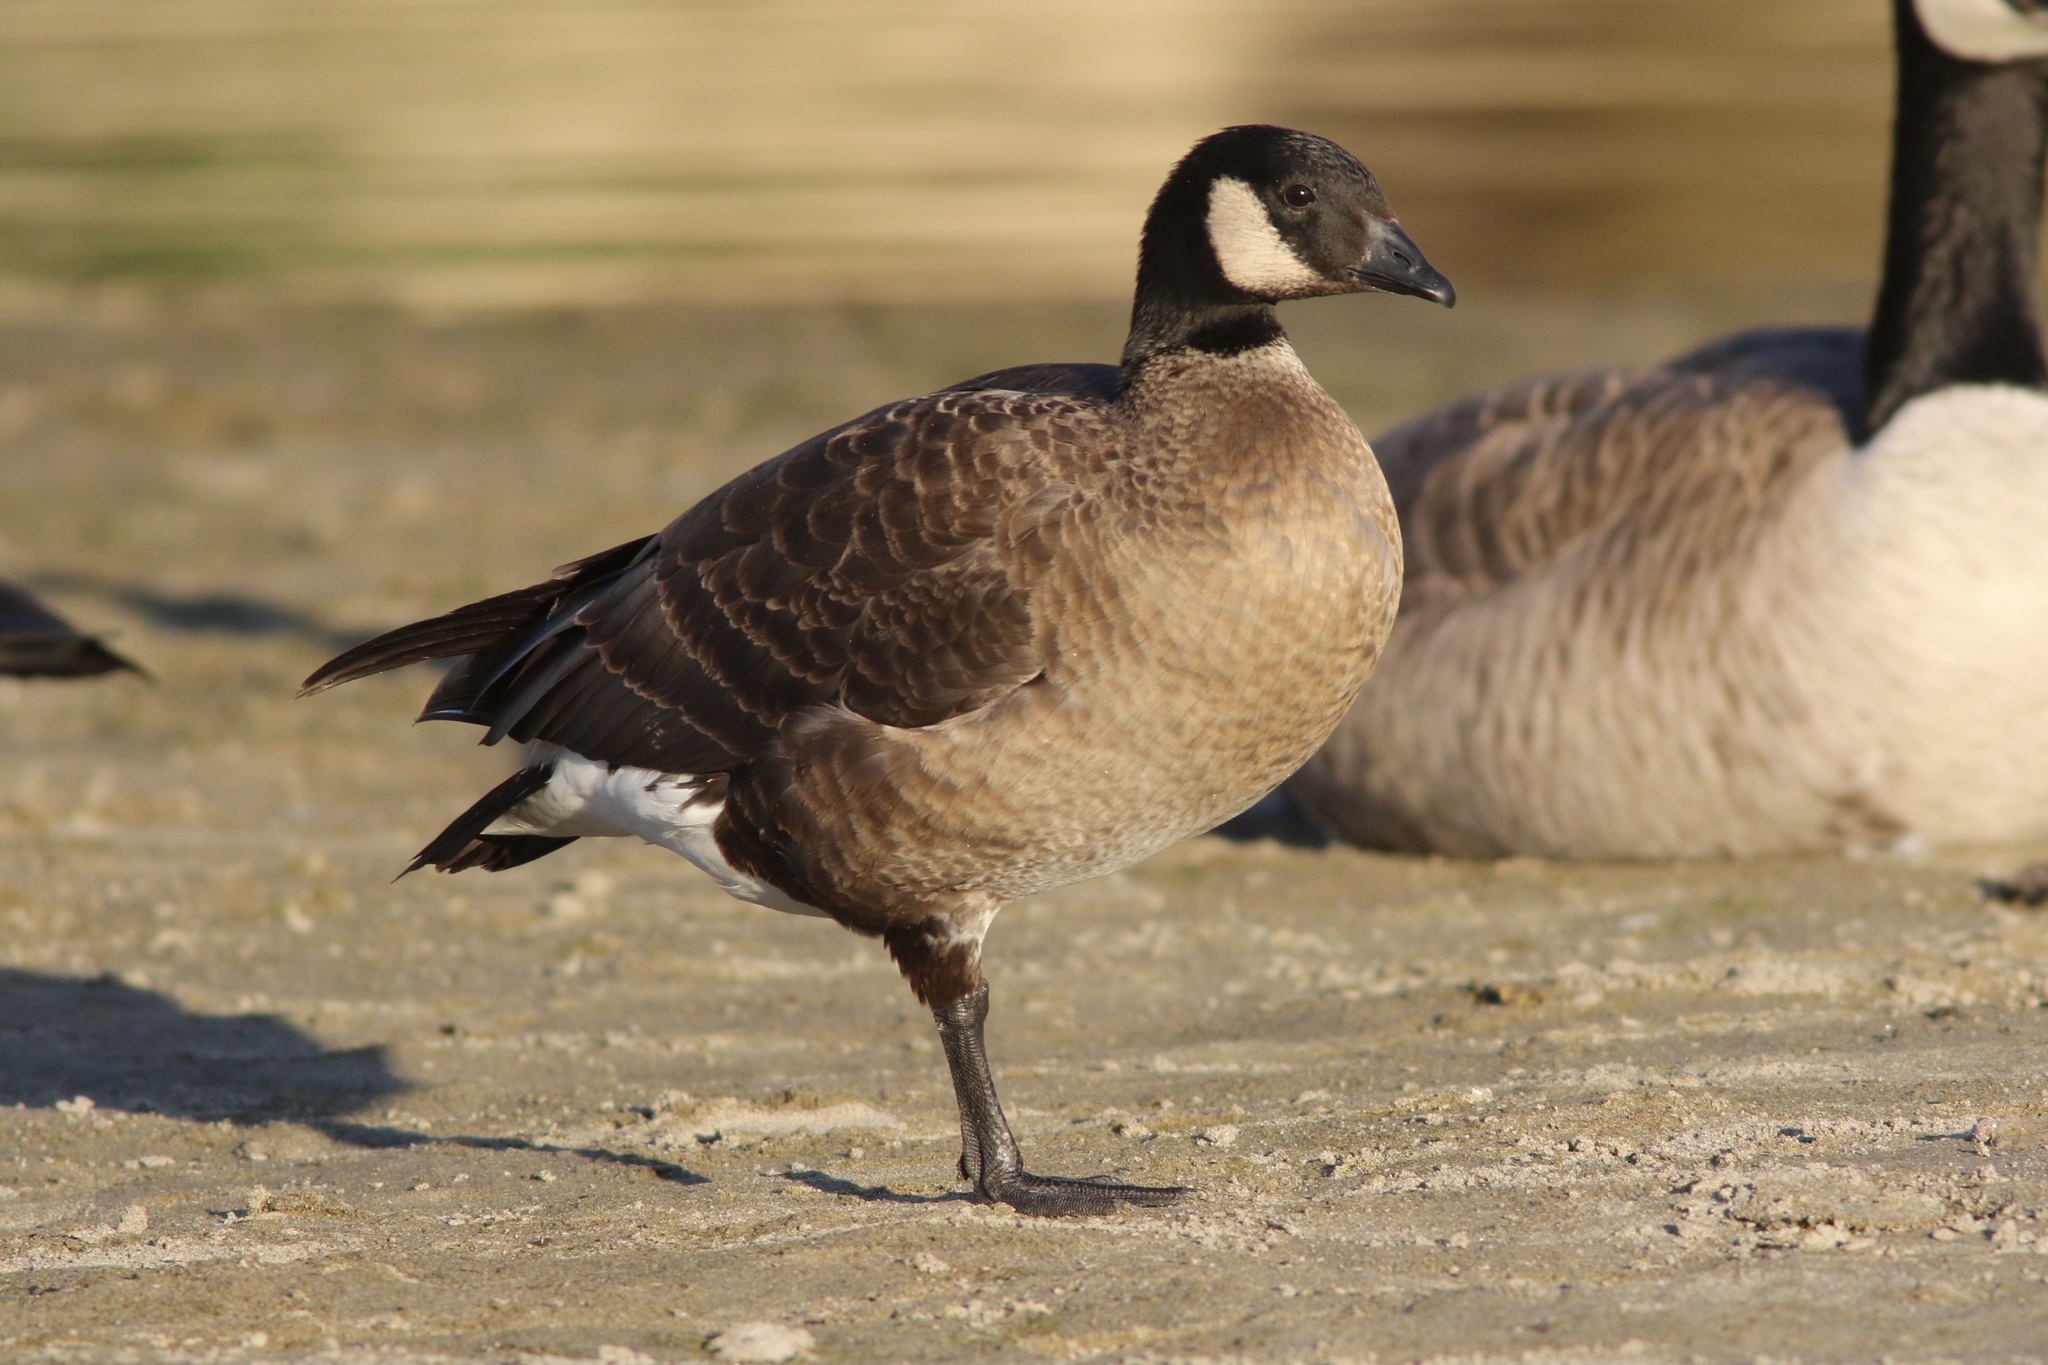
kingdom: Animalia
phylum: Chordata
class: Aves
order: Anseriformes
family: Anatidae
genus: Branta
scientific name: Branta hutchinsii
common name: Cackling goose
